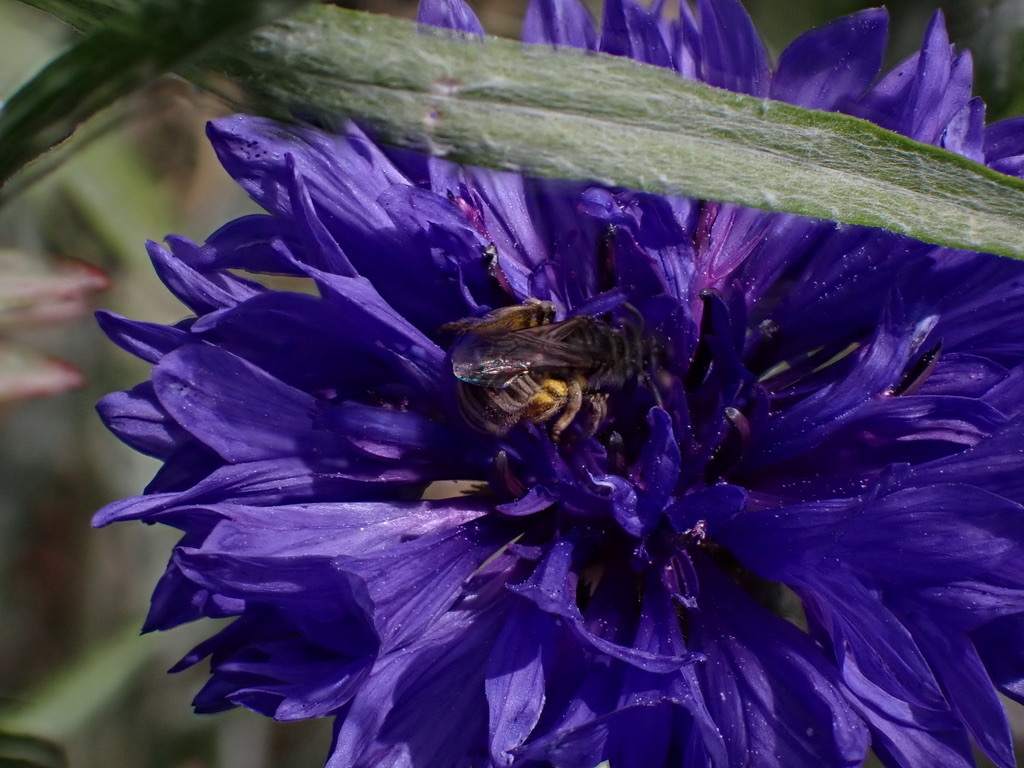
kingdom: Animalia
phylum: Arthropoda
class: Insecta
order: Hymenoptera
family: Halictidae
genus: Halictus
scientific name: Halictus tripartitus
